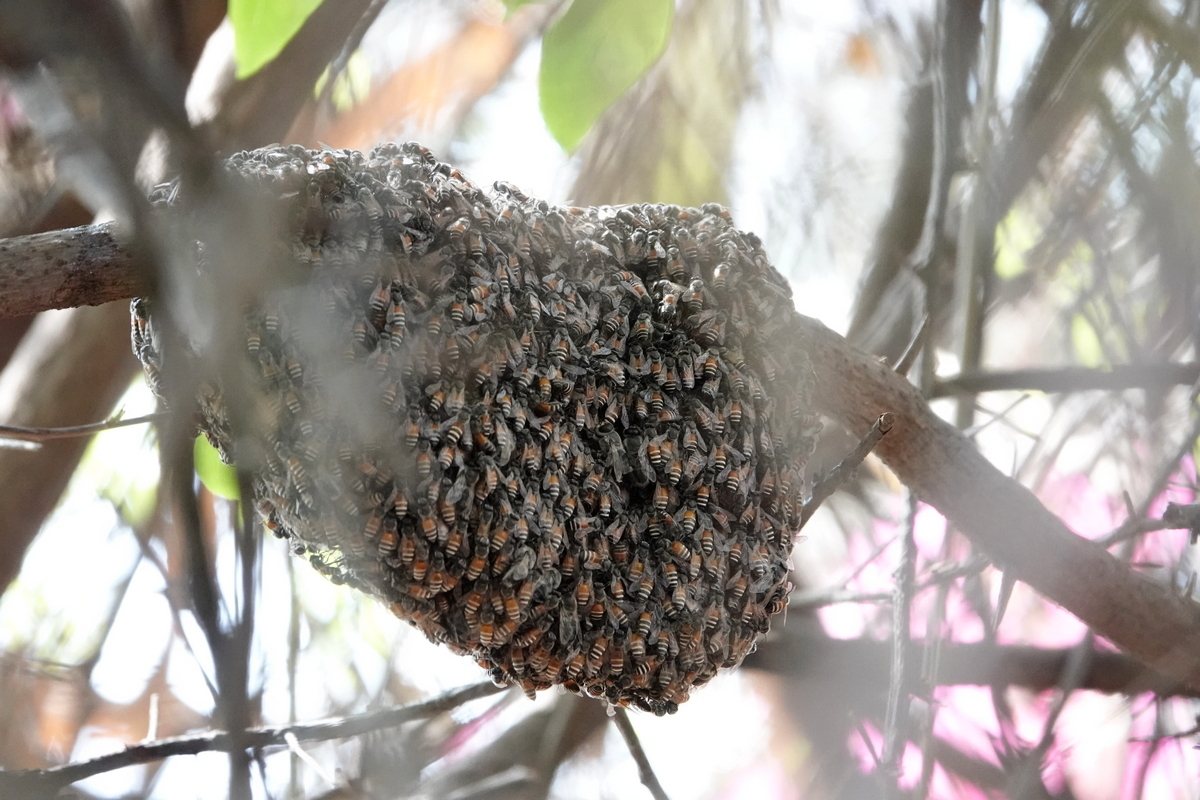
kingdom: Animalia
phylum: Arthropoda
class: Insecta
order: Hymenoptera
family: Apidae
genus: Apis
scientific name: Apis florea
